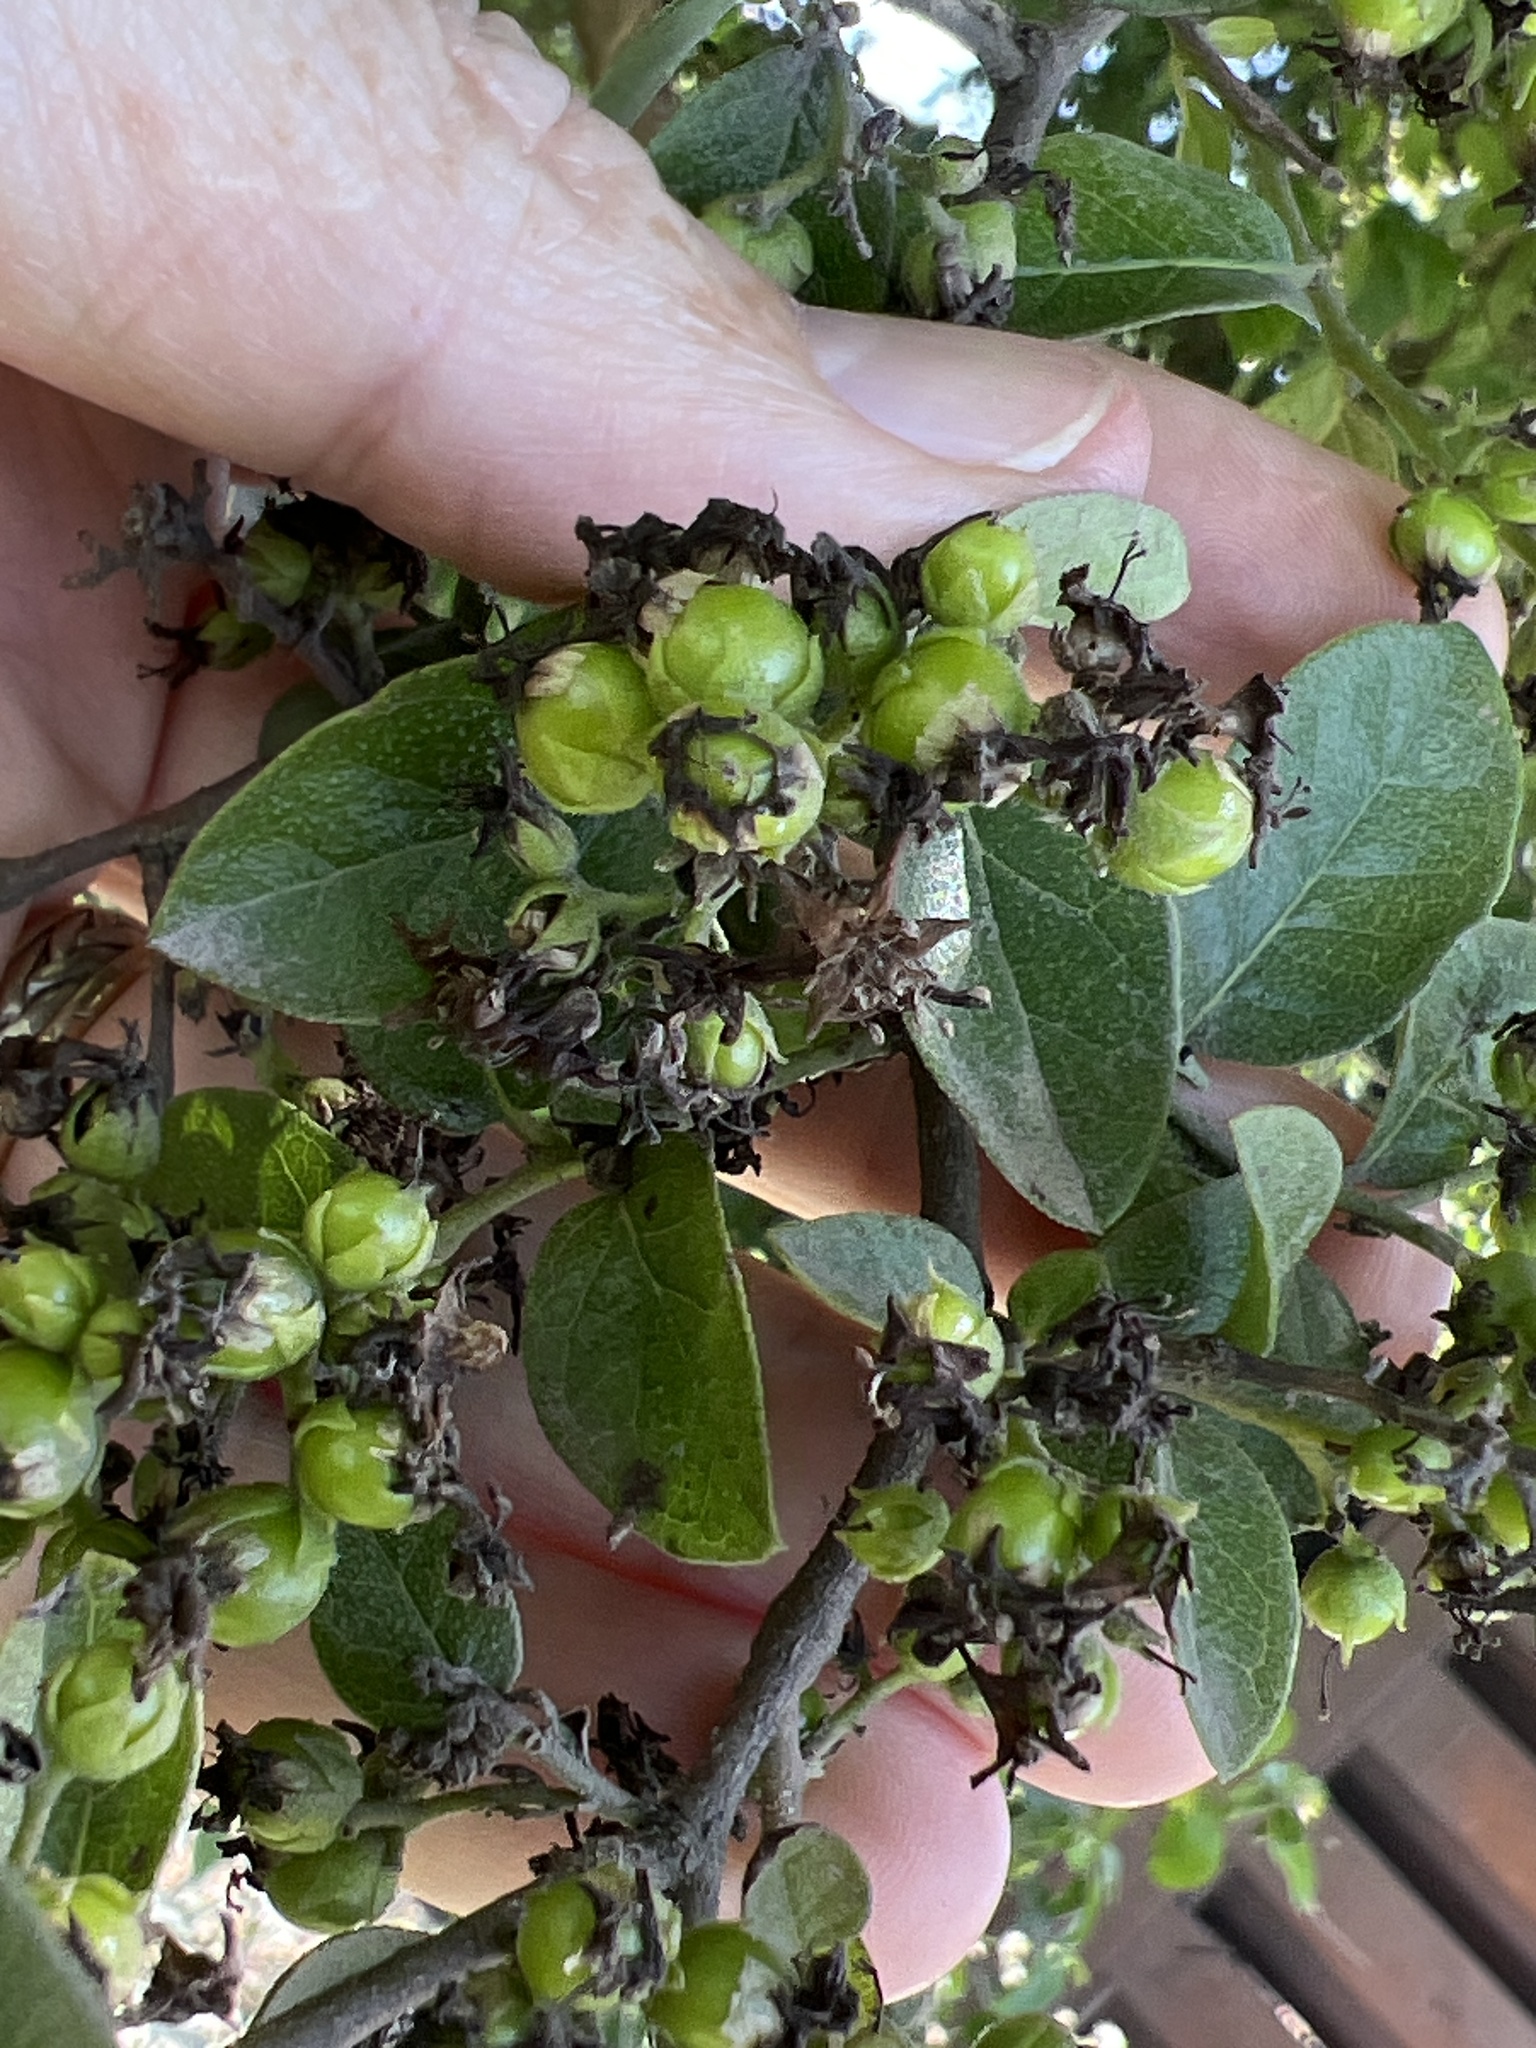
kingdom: Plantae
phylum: Tracheophyta
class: Magnoliopsida
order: Boraginales
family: Ehretiaceae
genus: Ehretia
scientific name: Ehretia anacua
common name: Sugarberry
